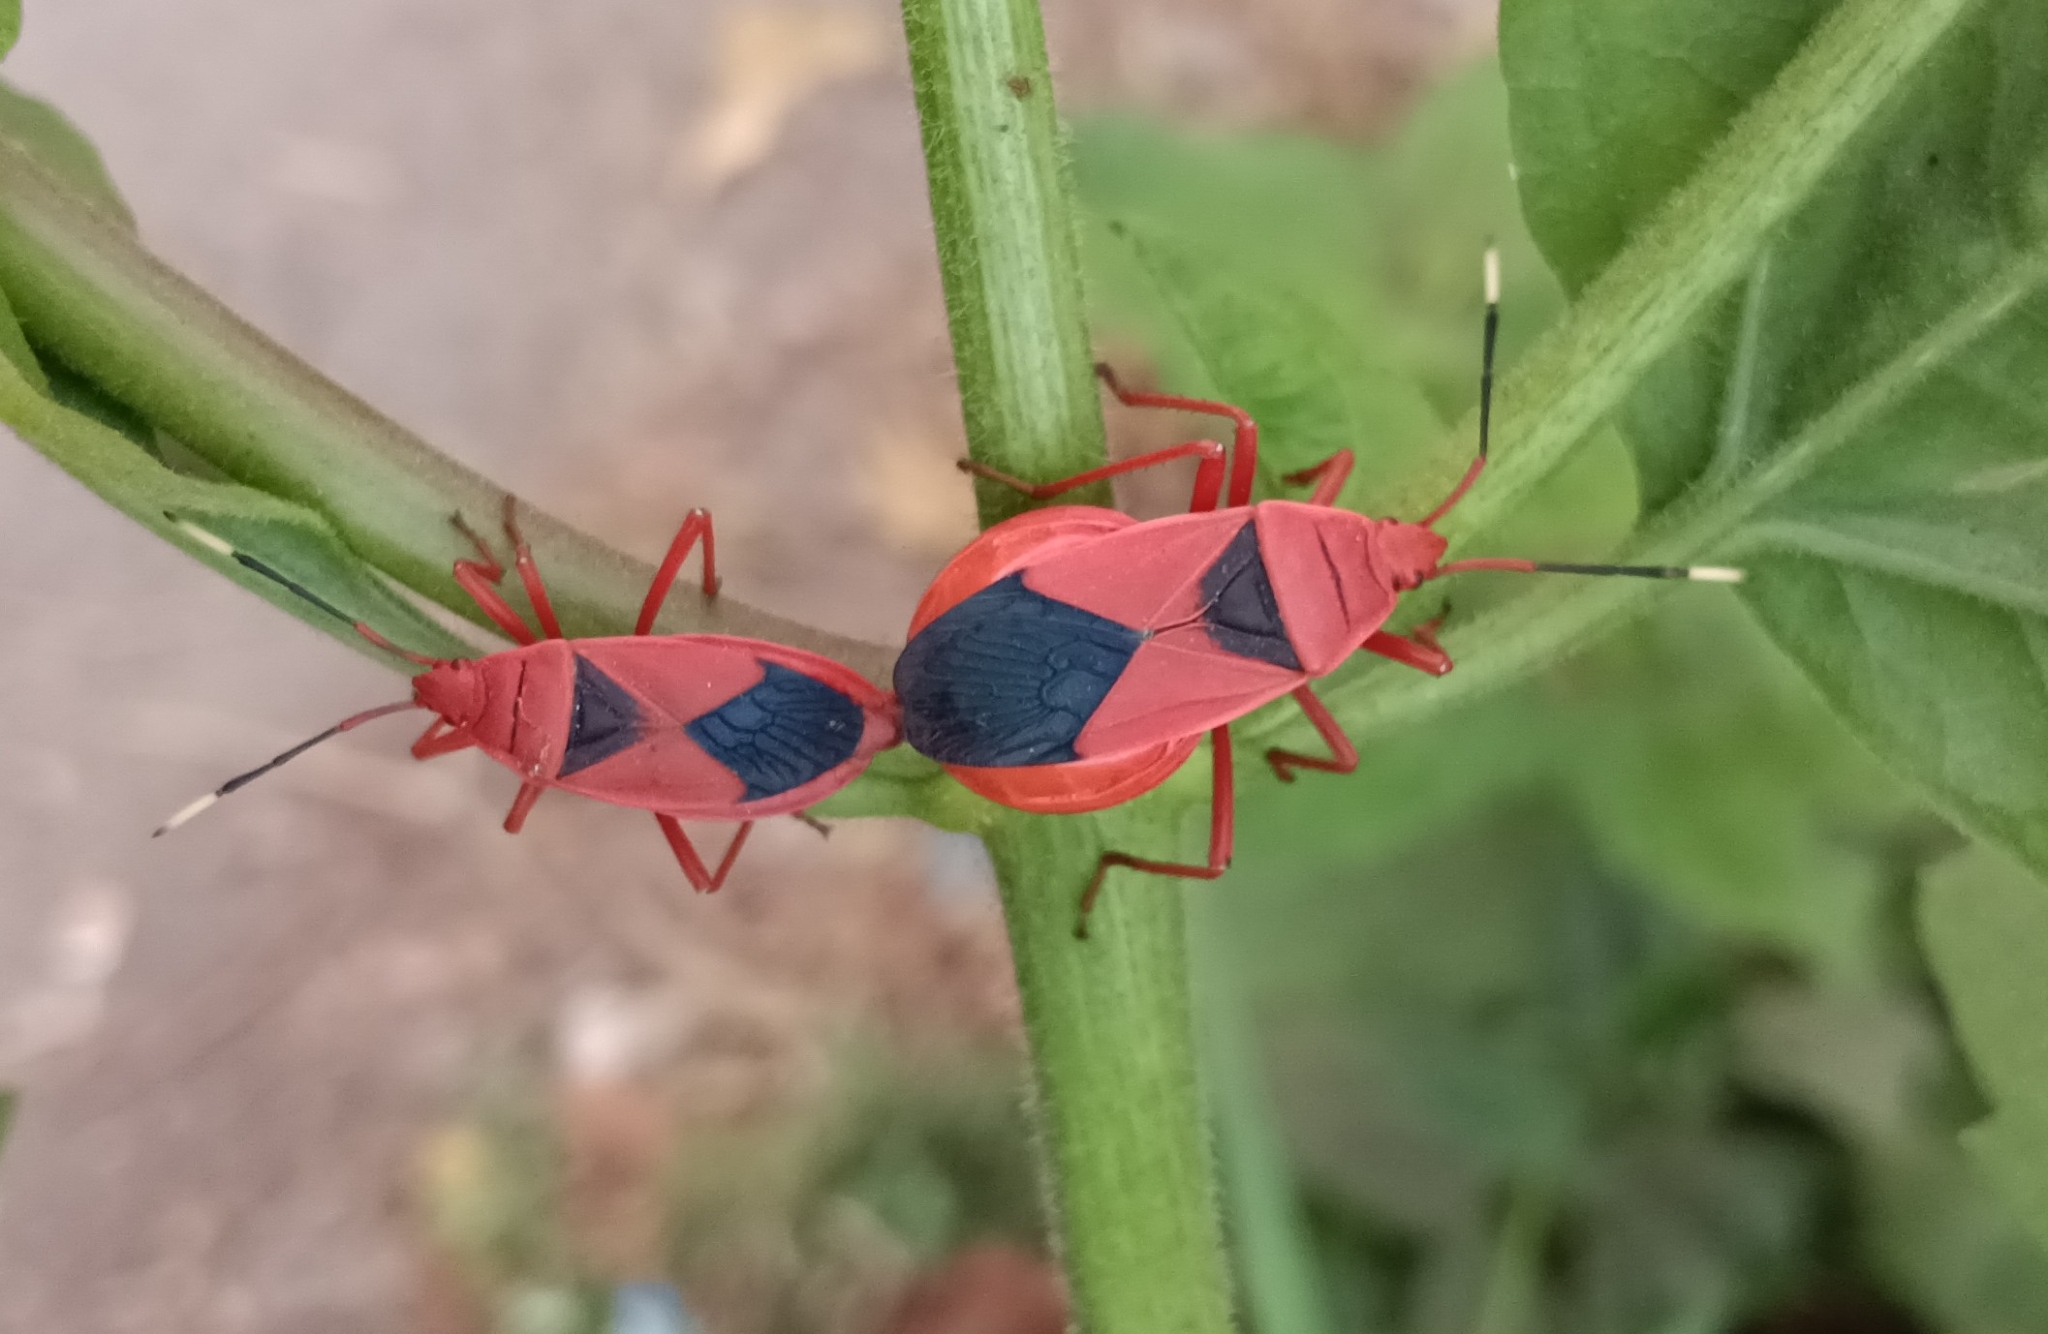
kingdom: Animalia
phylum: Arthropoda
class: Insecta
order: Hemiptera
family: Pyrrhocoridae
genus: Probergrothius
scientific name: Probergrothius
